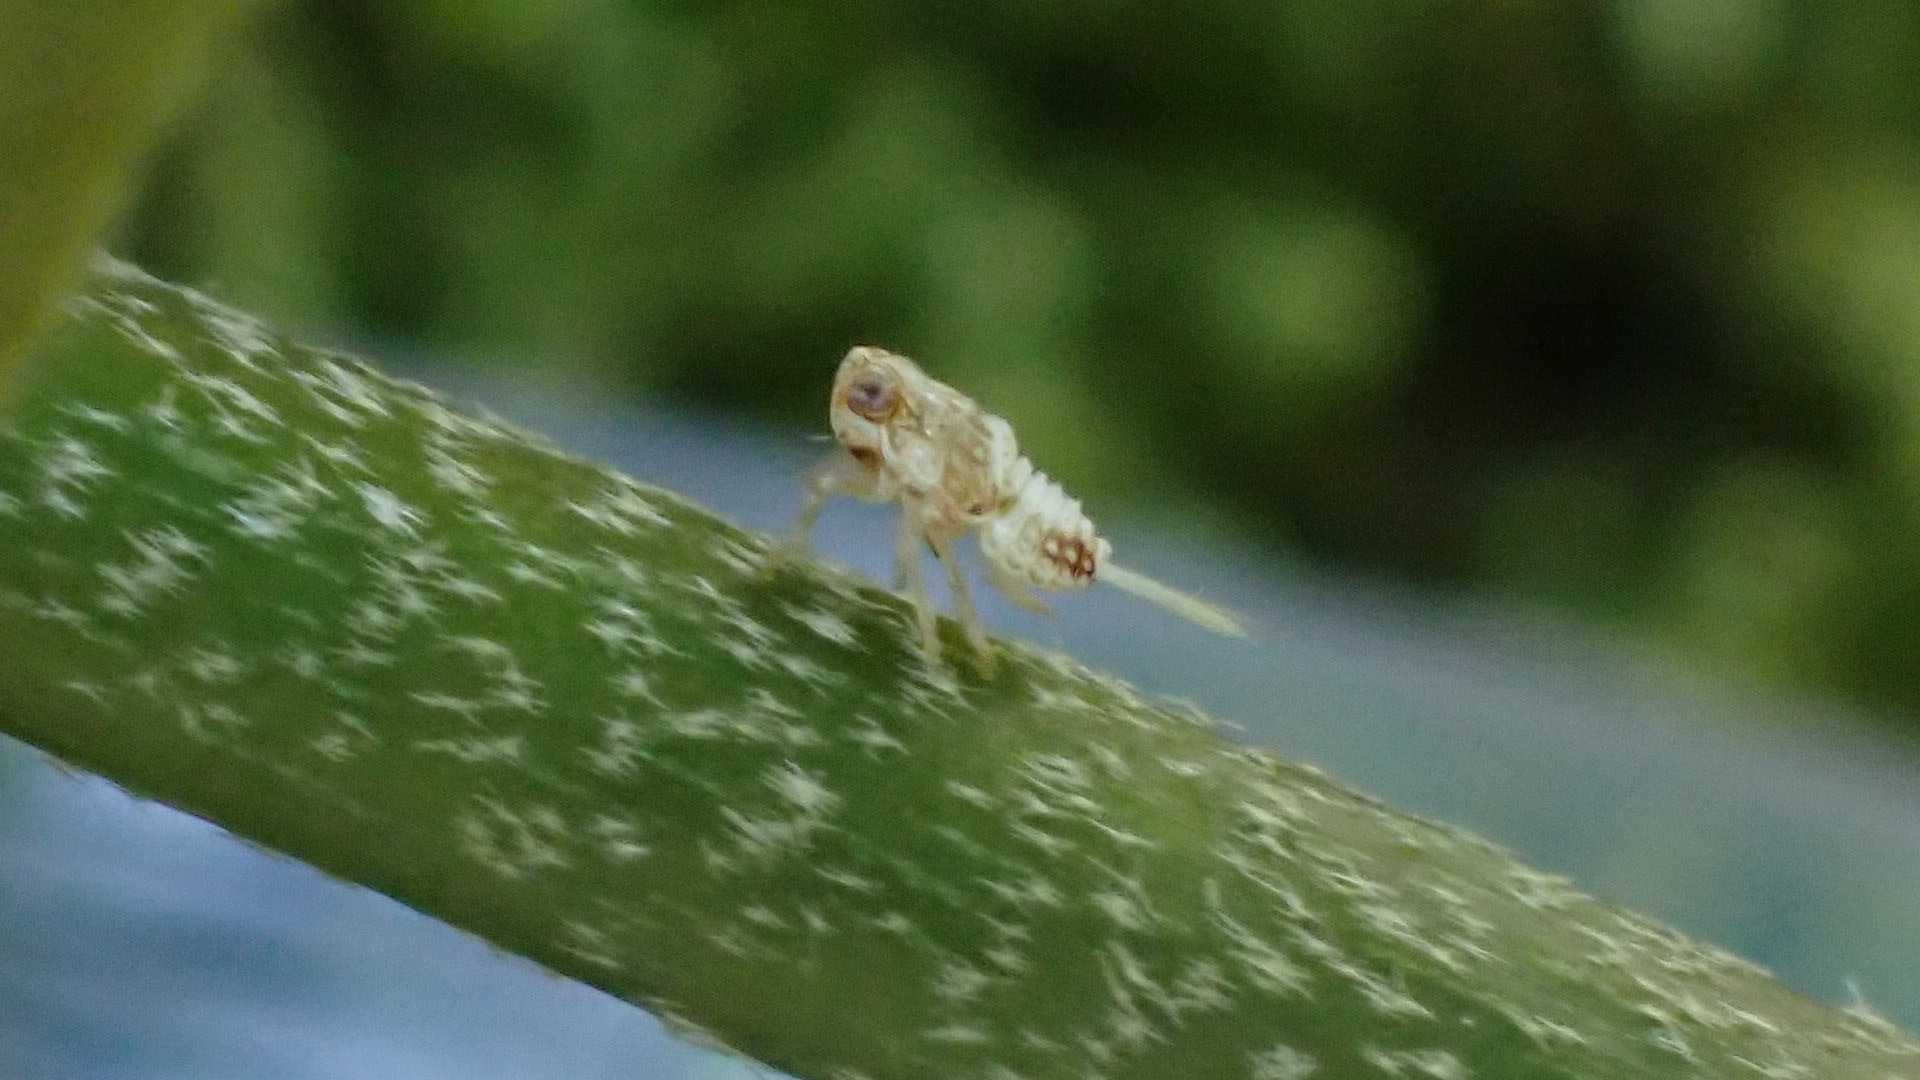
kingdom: Animalia
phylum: Arthropoda
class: Insecta
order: Hemiptera
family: Issidae
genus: Issus
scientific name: Issus coleoptratus
